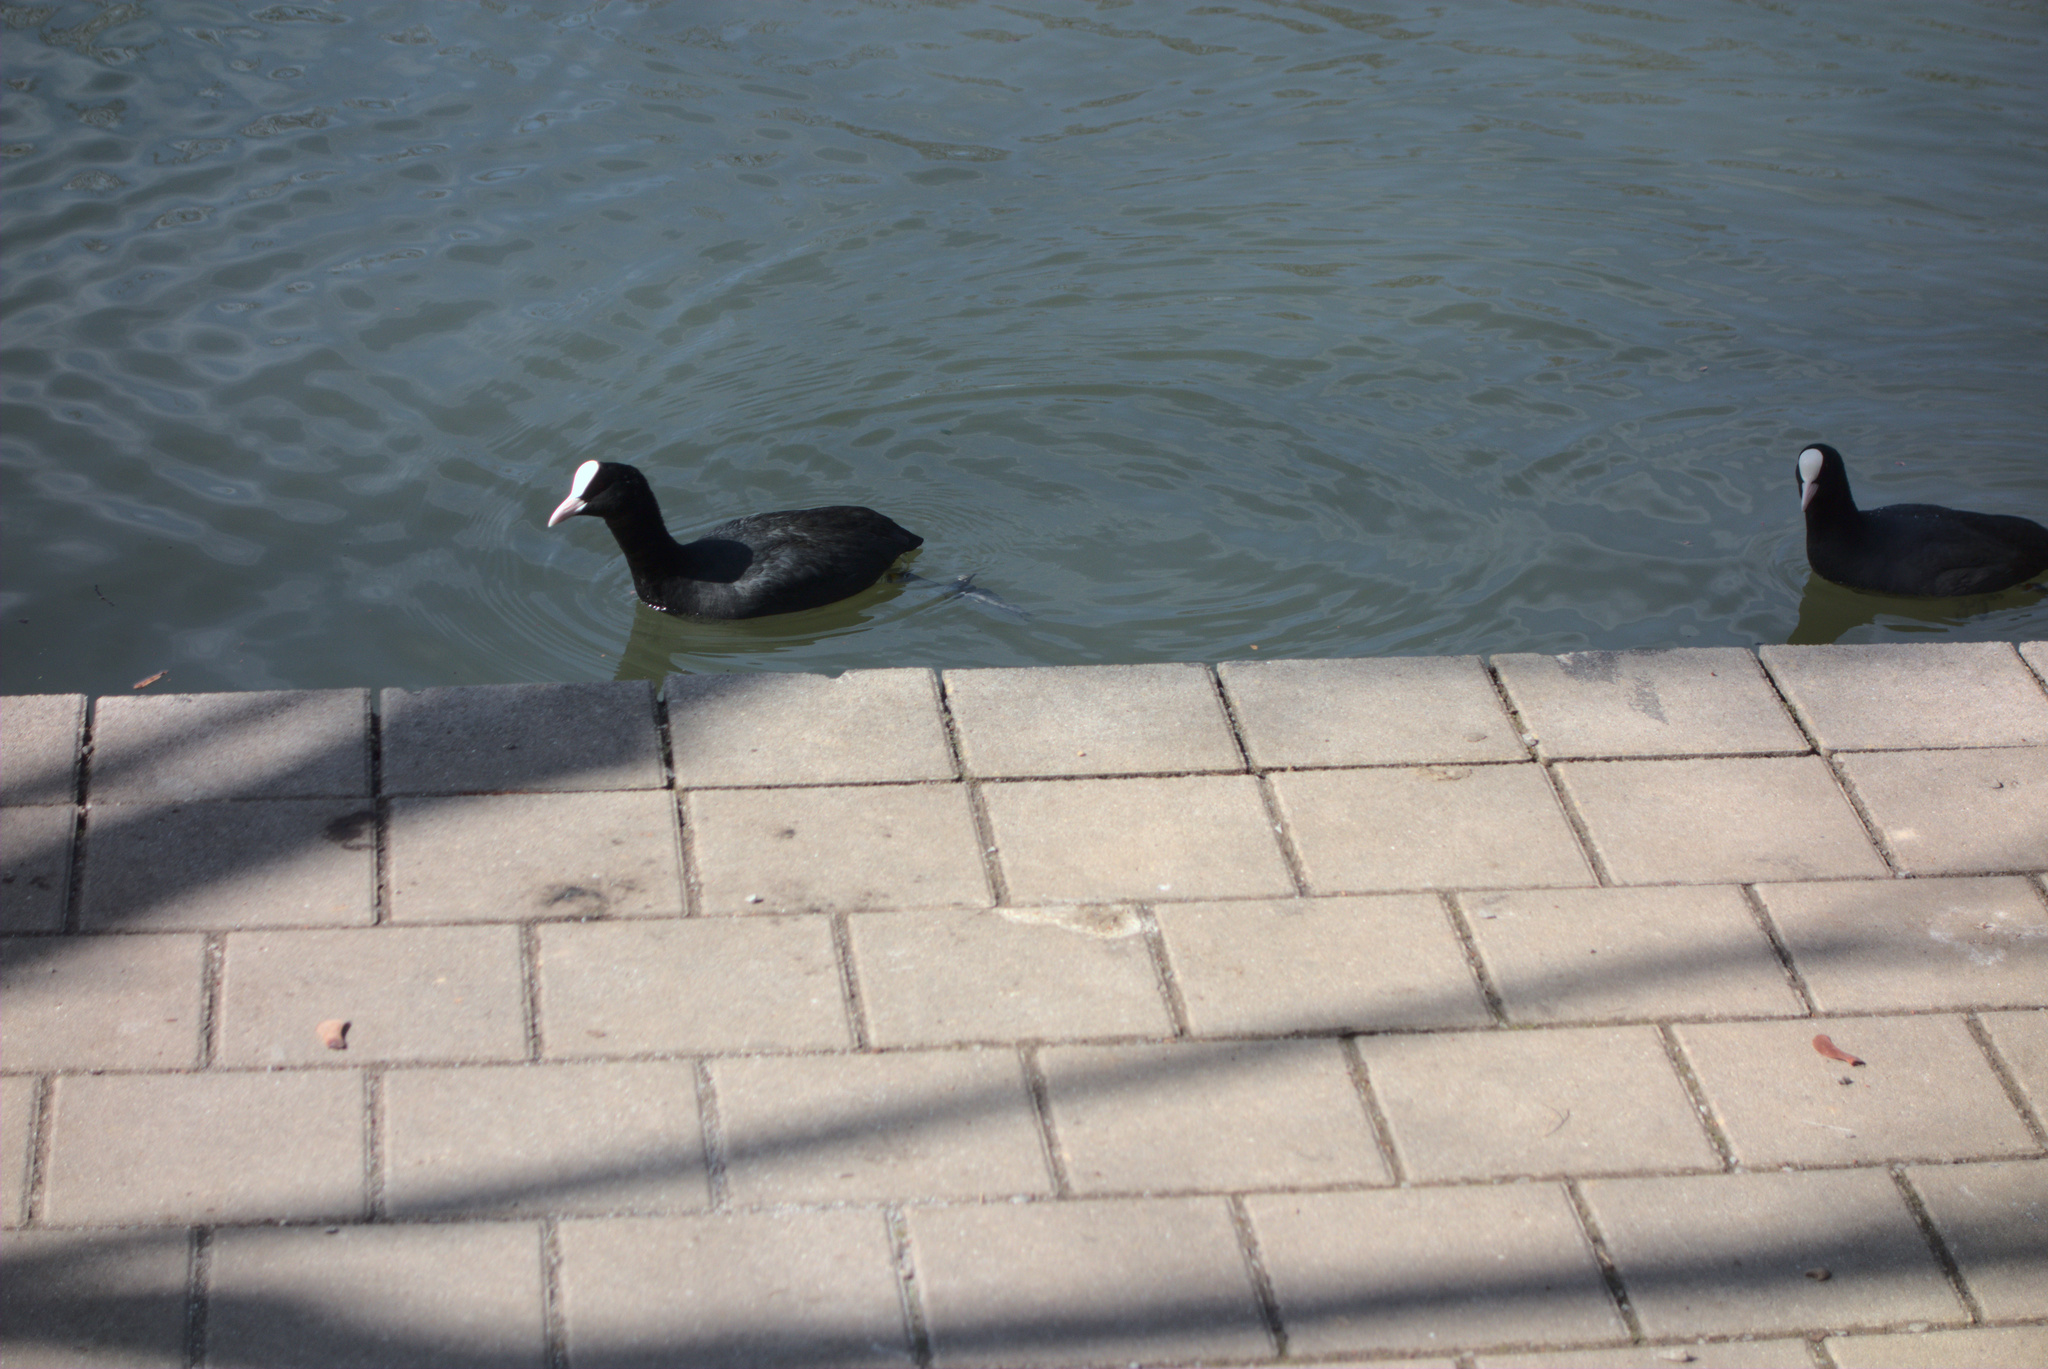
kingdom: Animalia
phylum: Chordata
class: Aves
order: Gruiformes
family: Rallidae
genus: Fulica
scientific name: Fulica atra
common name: Eurasian coot
